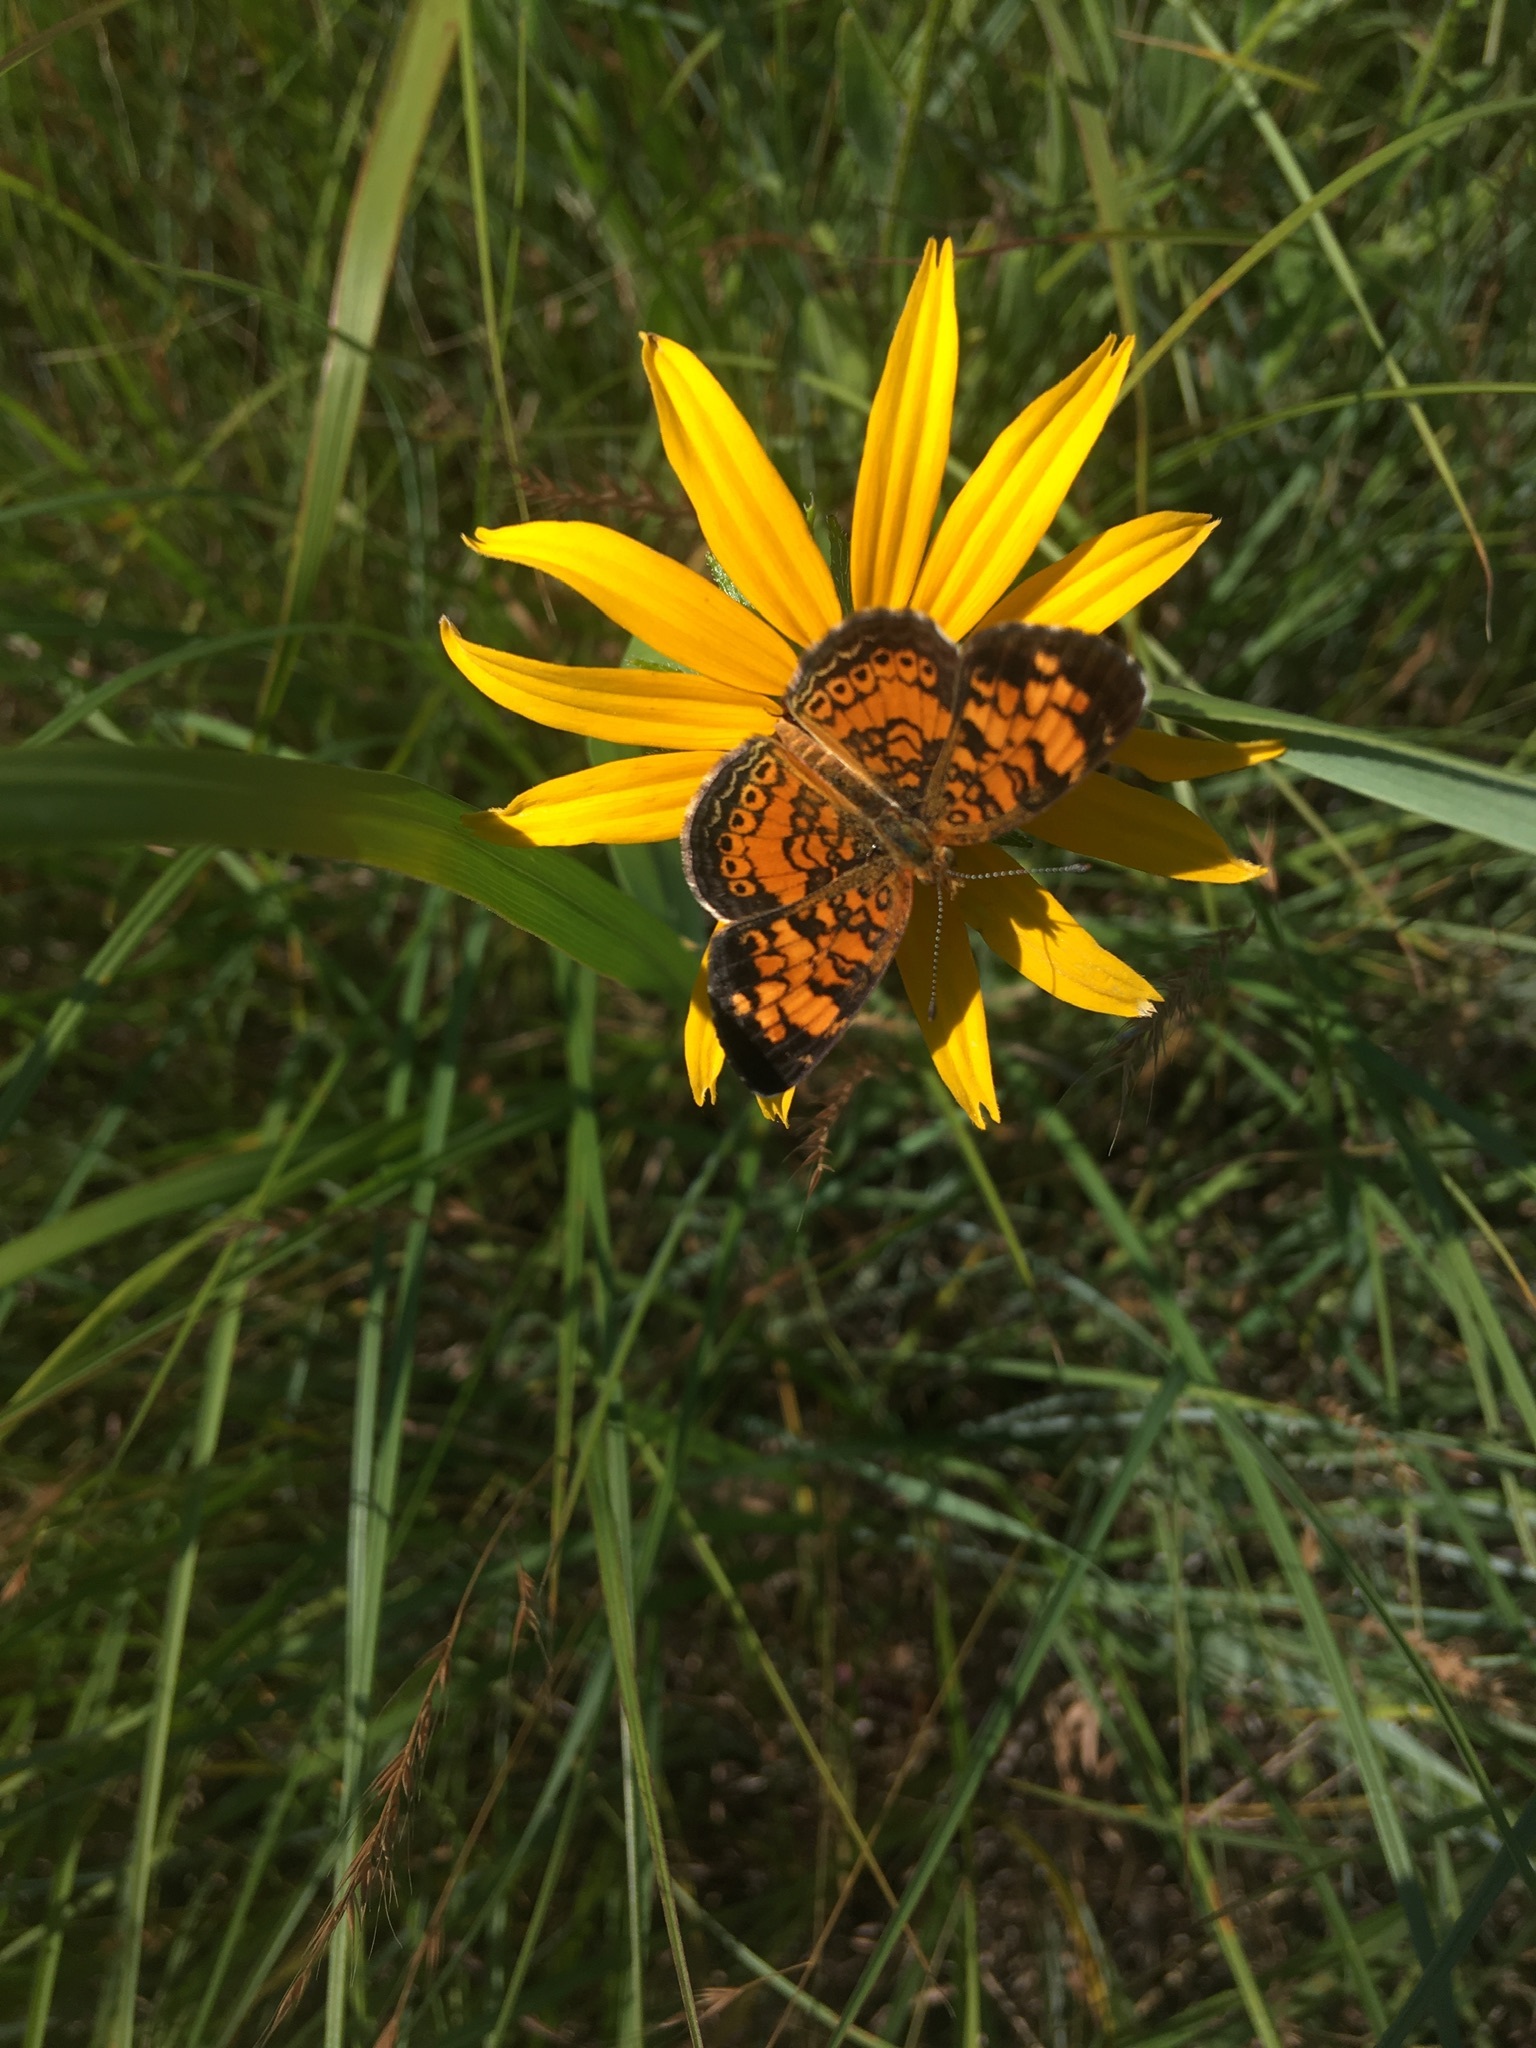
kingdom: Animalia
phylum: Arthropoda
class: Insecta
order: Lepidoptera
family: Nymphalidae
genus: Phyciodes
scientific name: Phyciodes tharos
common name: Pearl crescent
